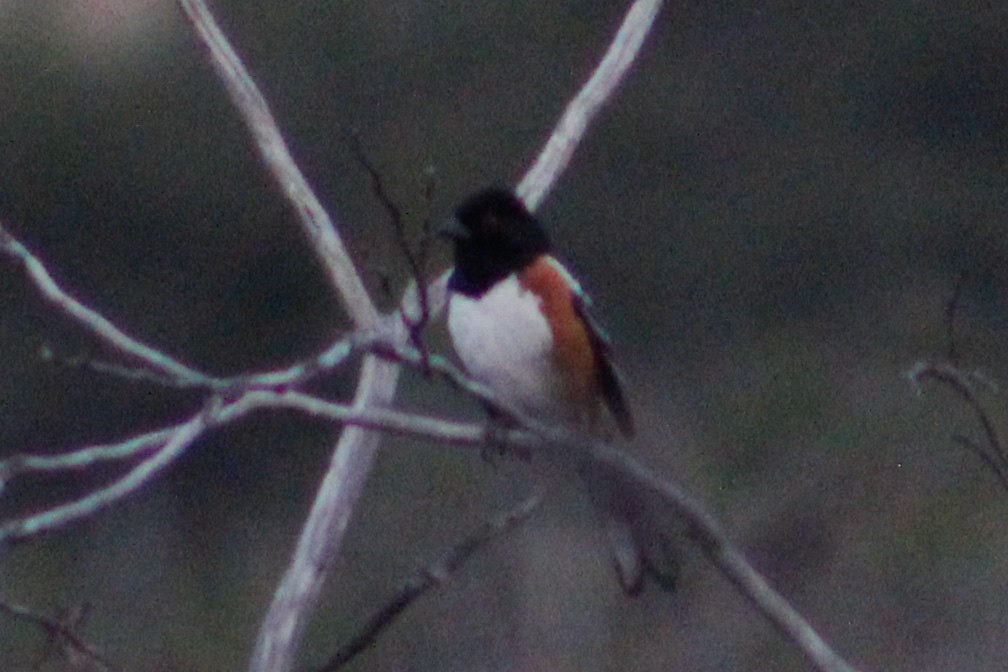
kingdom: Animalia
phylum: Chordata
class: Aves
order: Passeriformes
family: Passerellidae
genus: Pipilo
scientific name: Pipilo maculatus
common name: Spotted towhee
